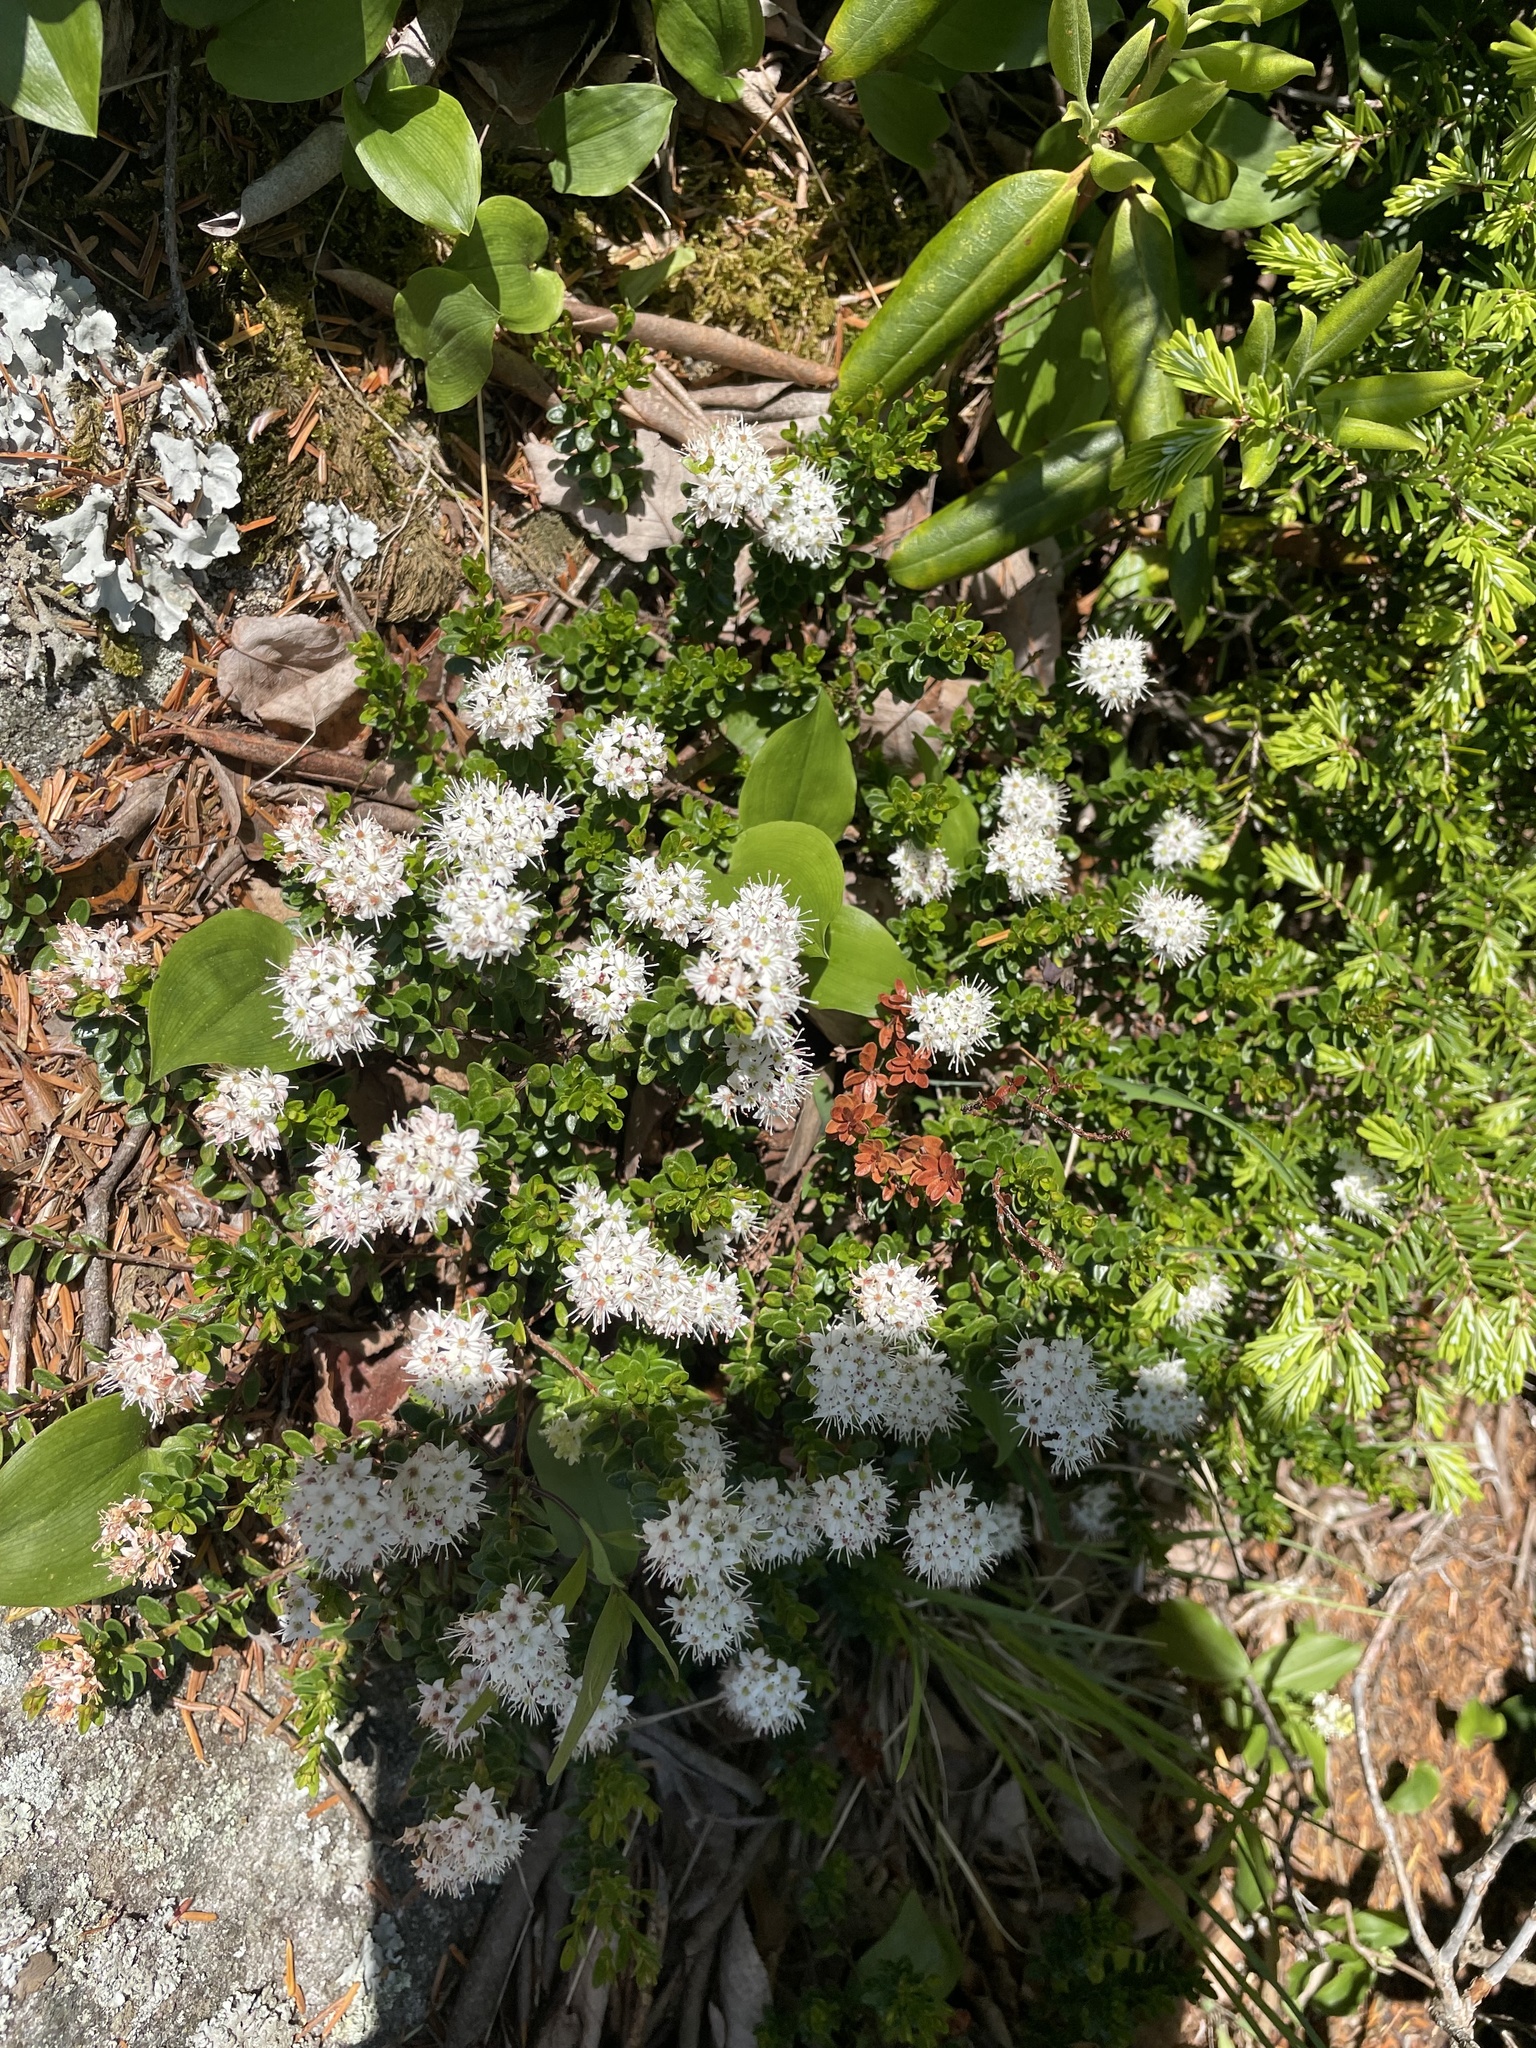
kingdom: Plantae
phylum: Tracheophyta
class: Magnoliopsida
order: Ericales
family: Ericaceae
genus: Kalmia
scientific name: Kalmia buxifolia
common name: Sandmyrtle
